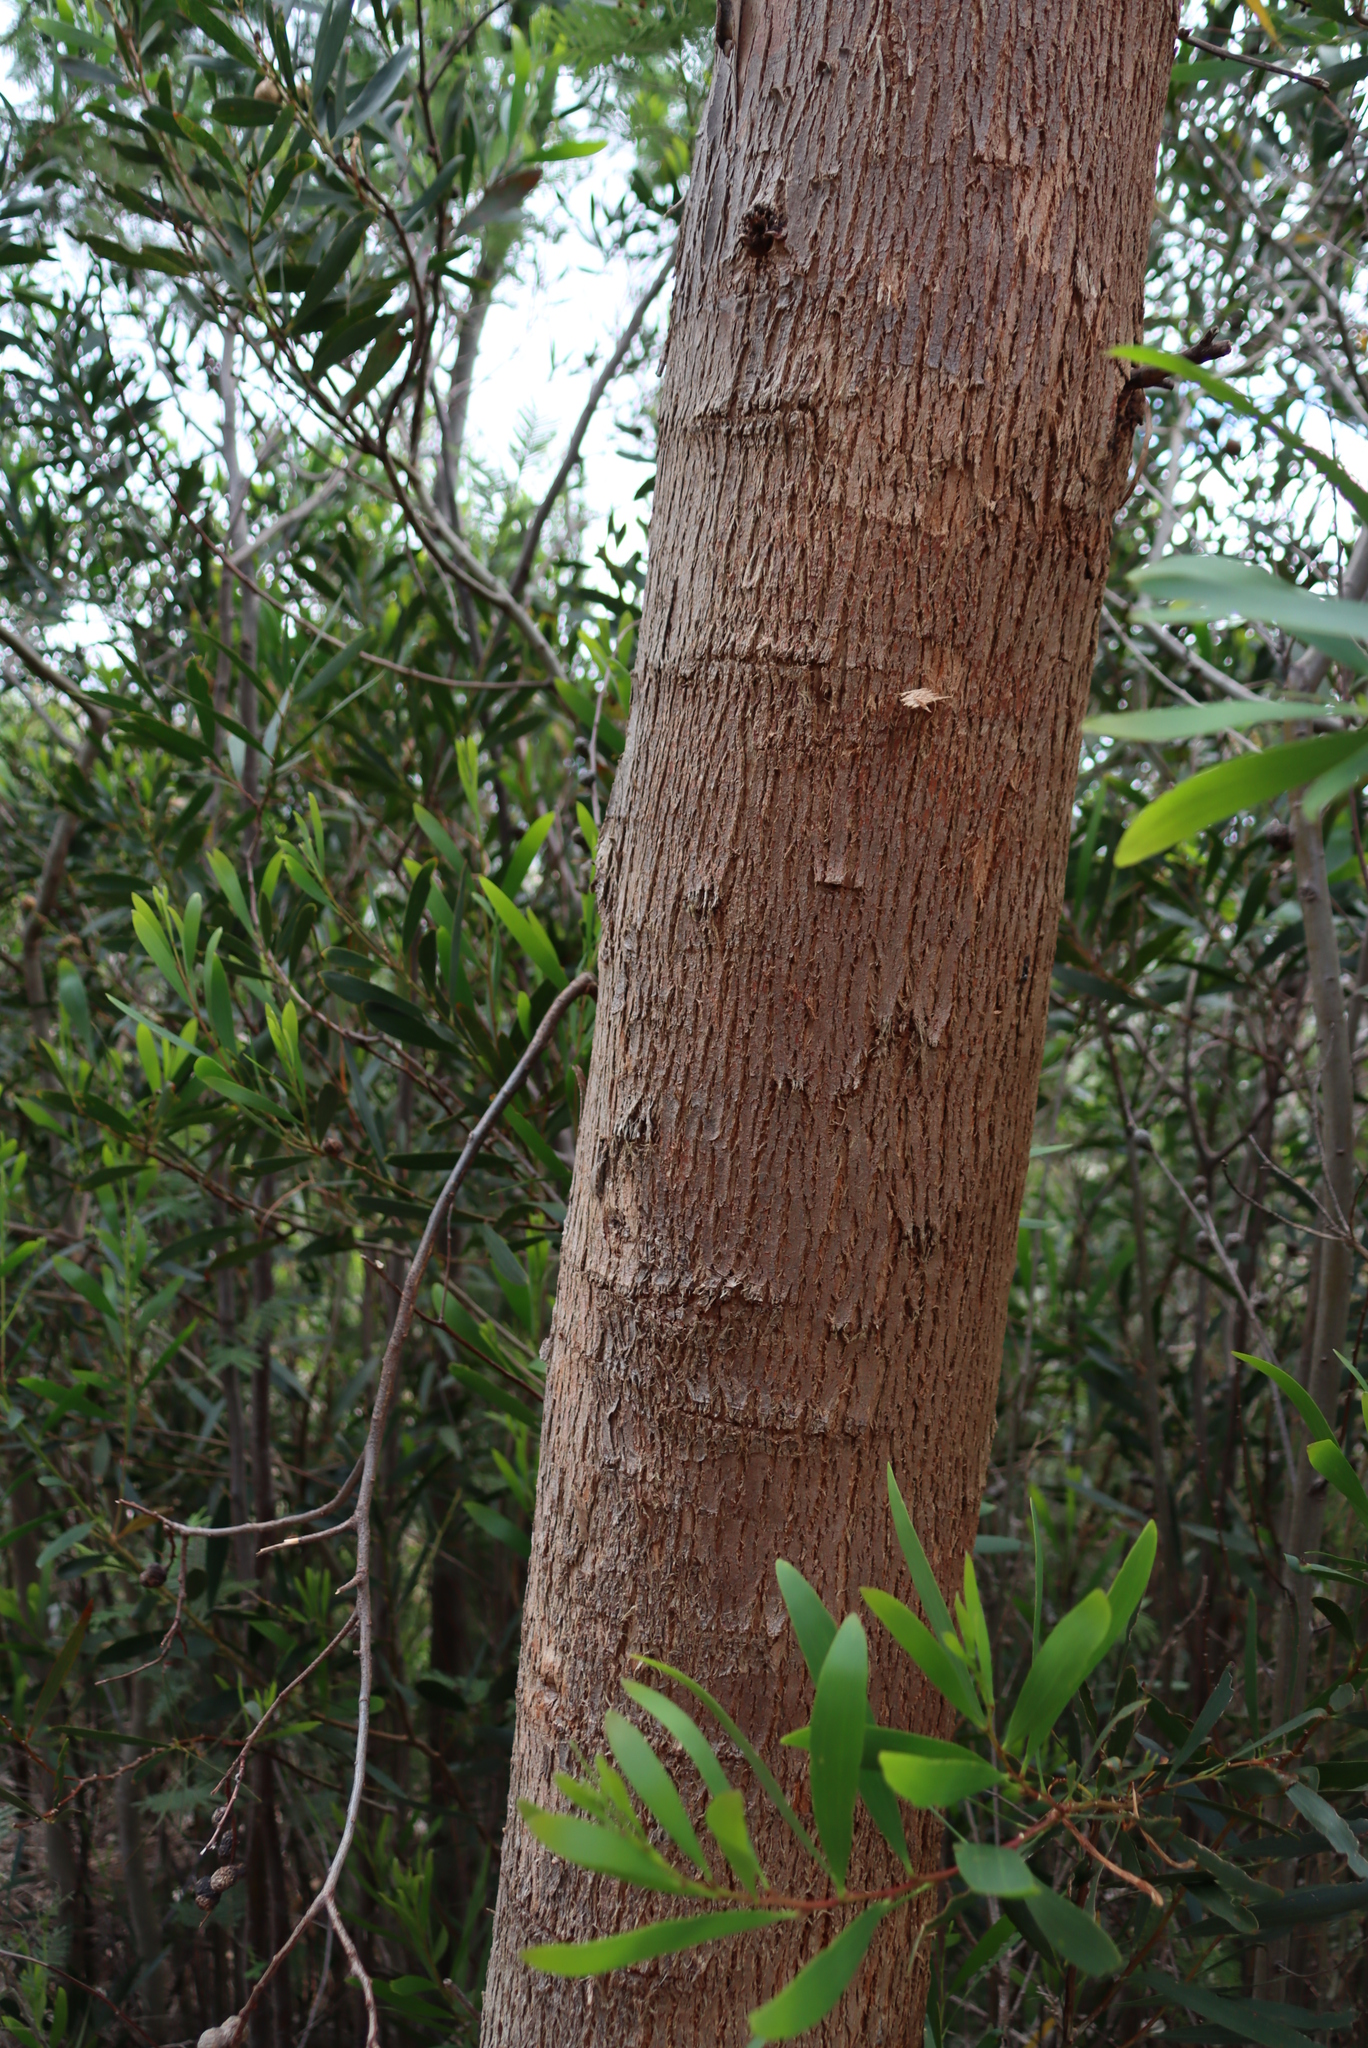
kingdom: Animalia
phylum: Chordata
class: Mammalia
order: Carnivora
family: Felidae
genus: Caracal
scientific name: Caracal caracal
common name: Caracal
